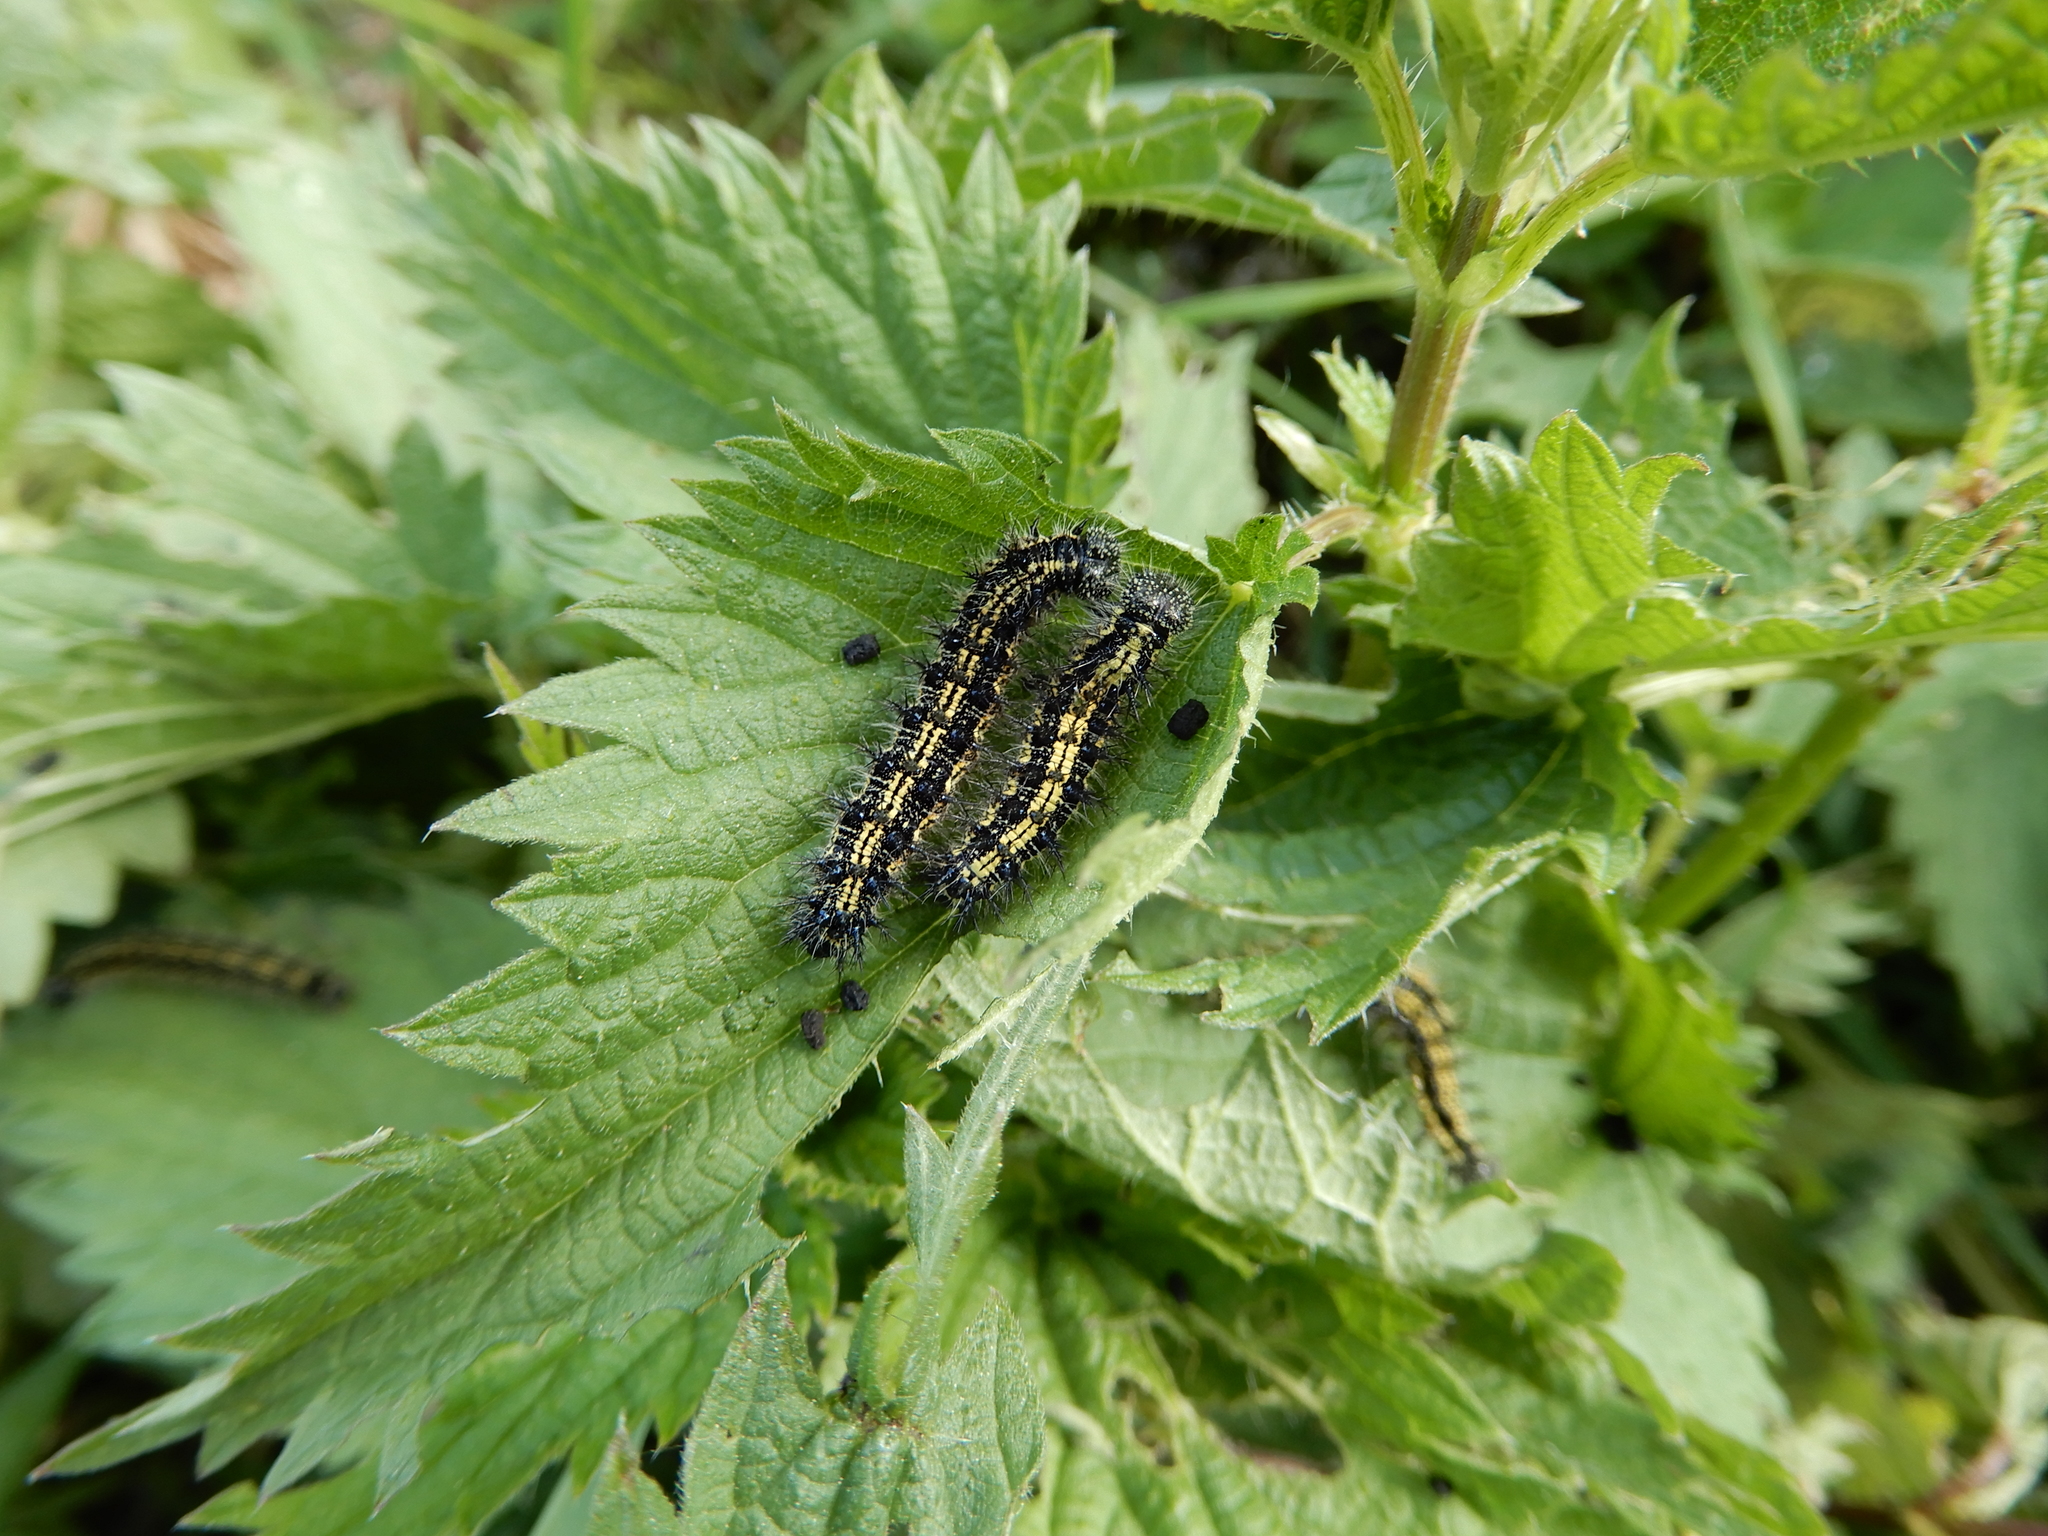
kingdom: Animalia
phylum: Arthropoda
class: Insecta
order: Lepidoptera
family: Nymphalidae
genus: Aglais
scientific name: Aglais urticae
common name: Small tortoiseshell
